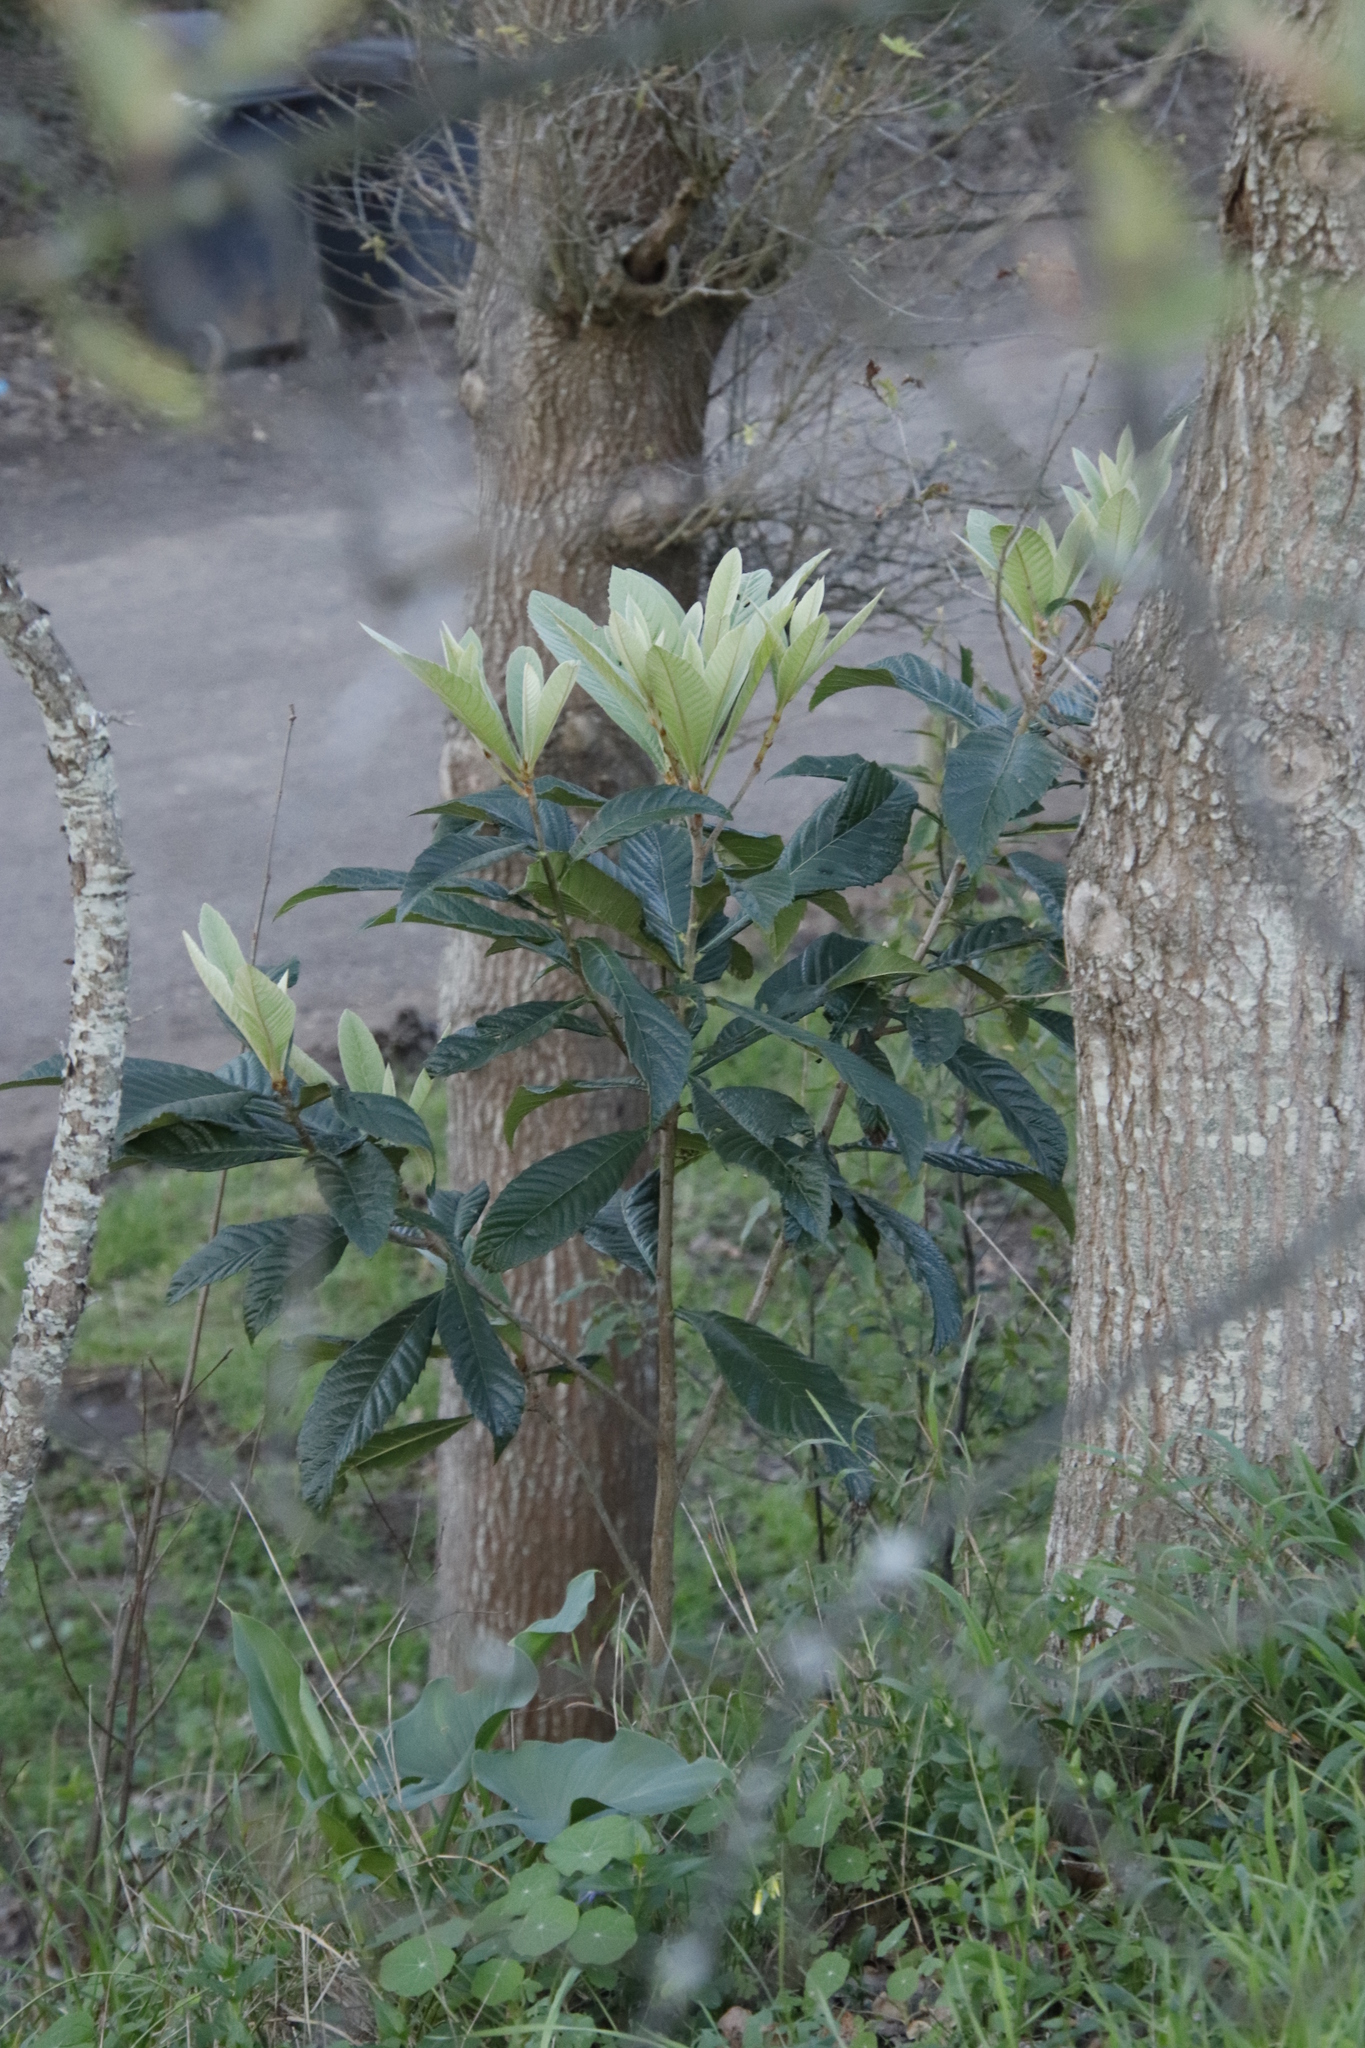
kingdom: Plantae
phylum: Tracheophyta
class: Magnoliopsida
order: Rosales
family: Rosaceae
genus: Rhaphiolepis
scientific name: Rhaphiolepis bibas
